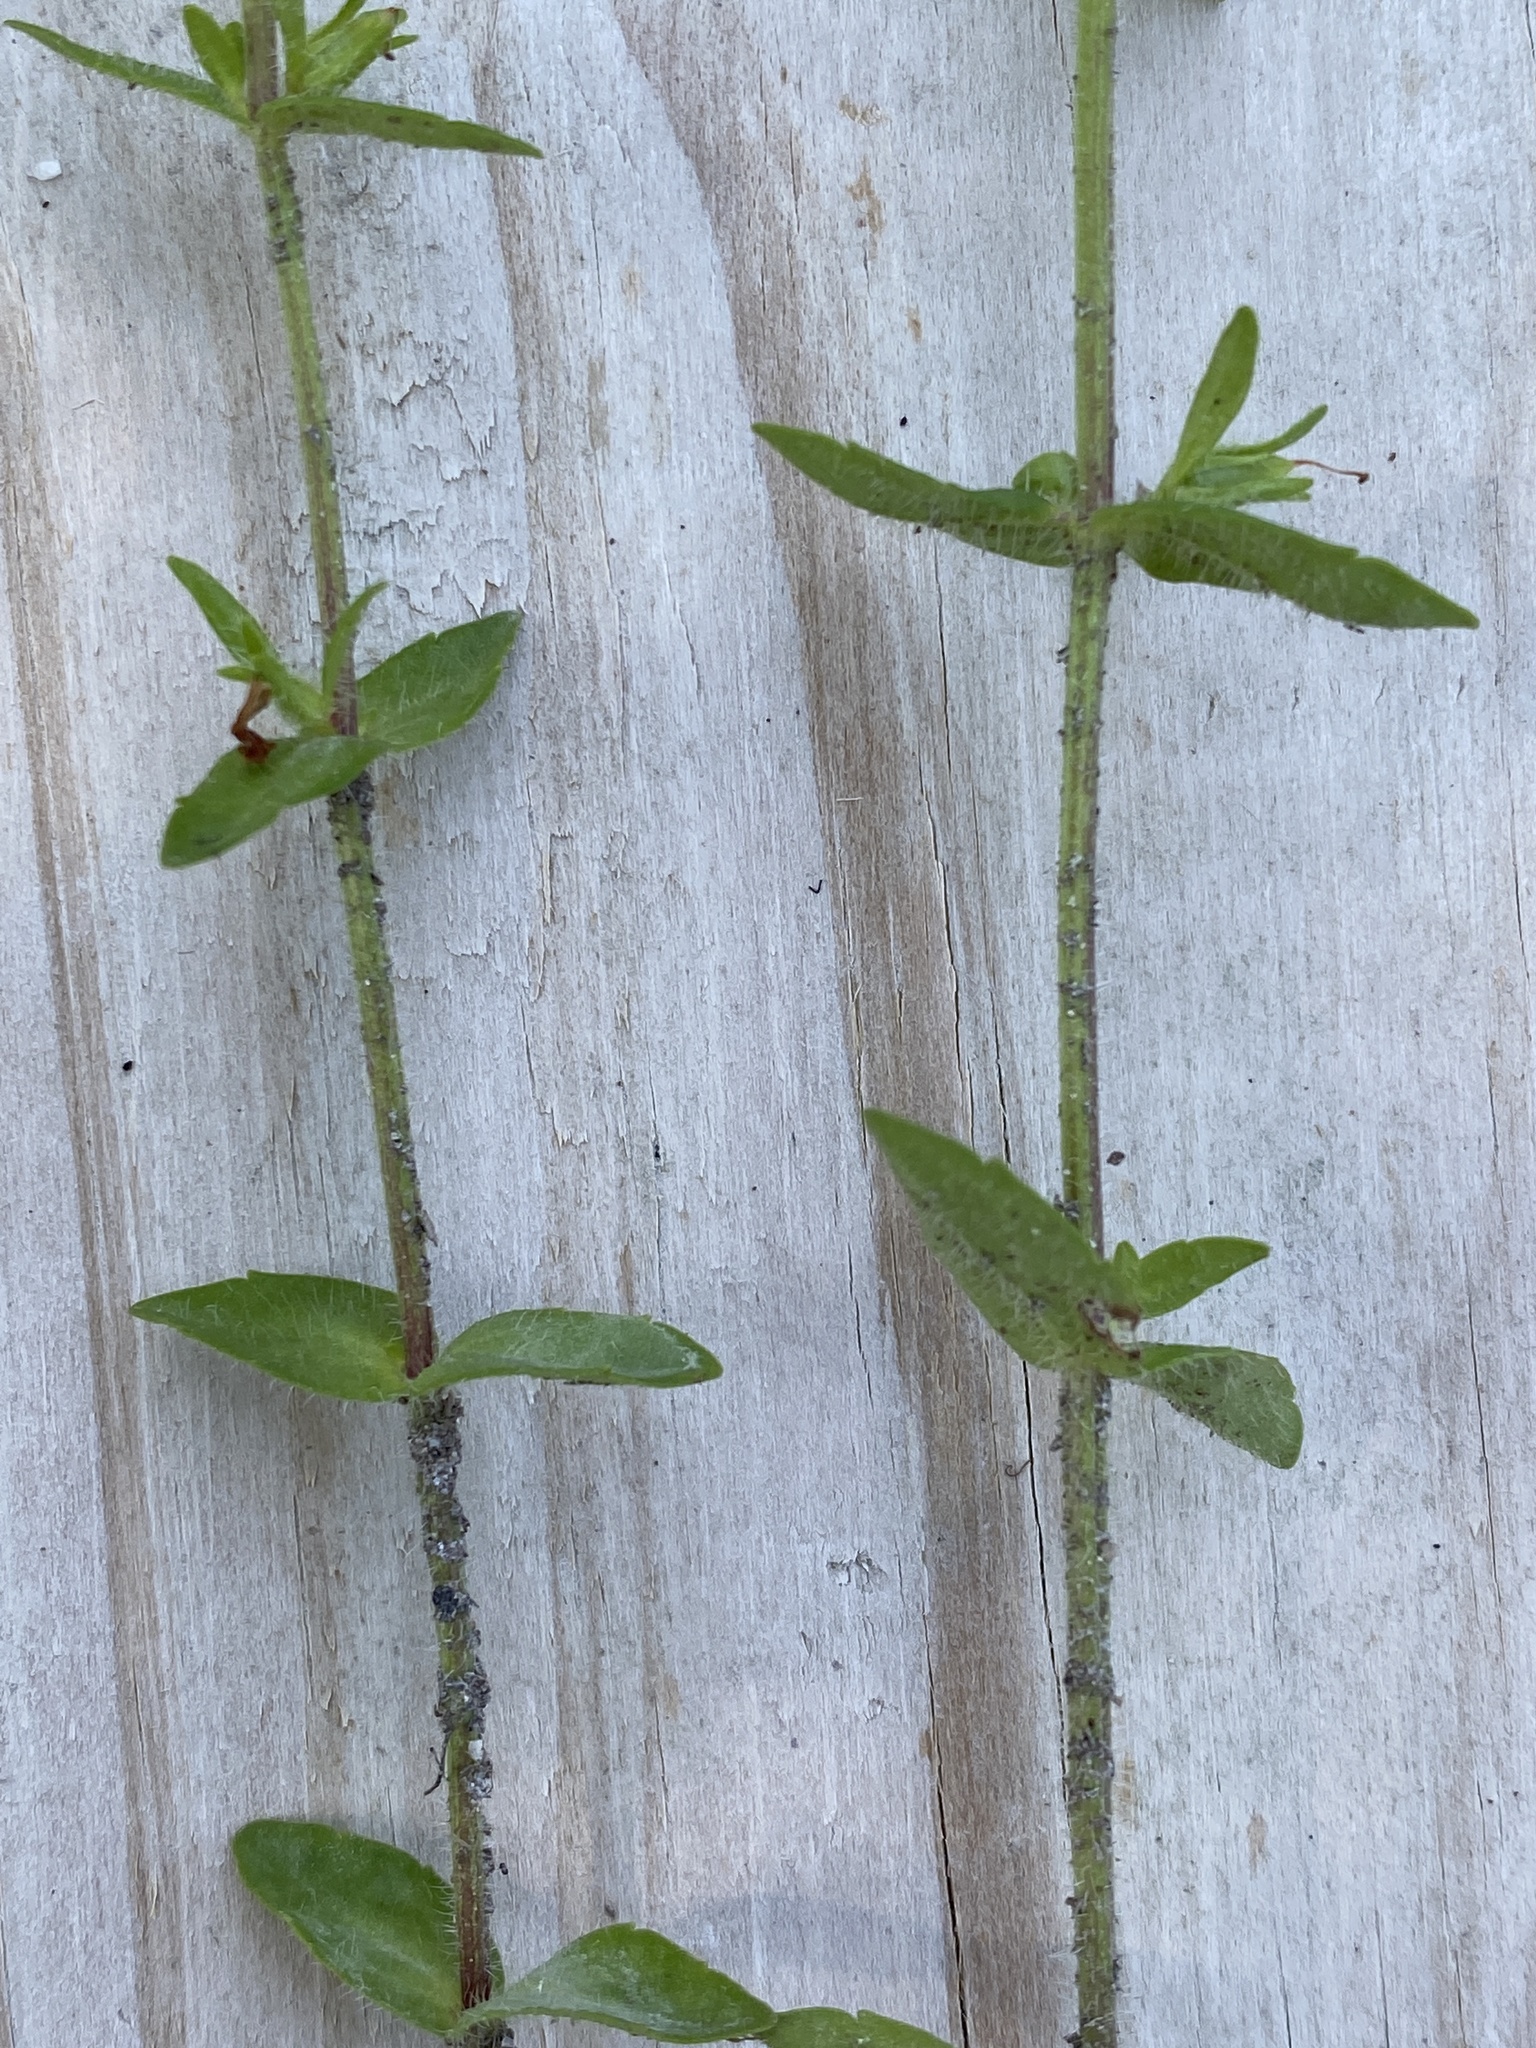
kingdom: Plantae
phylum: Tracheophyta
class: Magnoliopsida
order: Lamiales
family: Plantaginaceae
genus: Gratiola
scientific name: Gratiola pilosa
